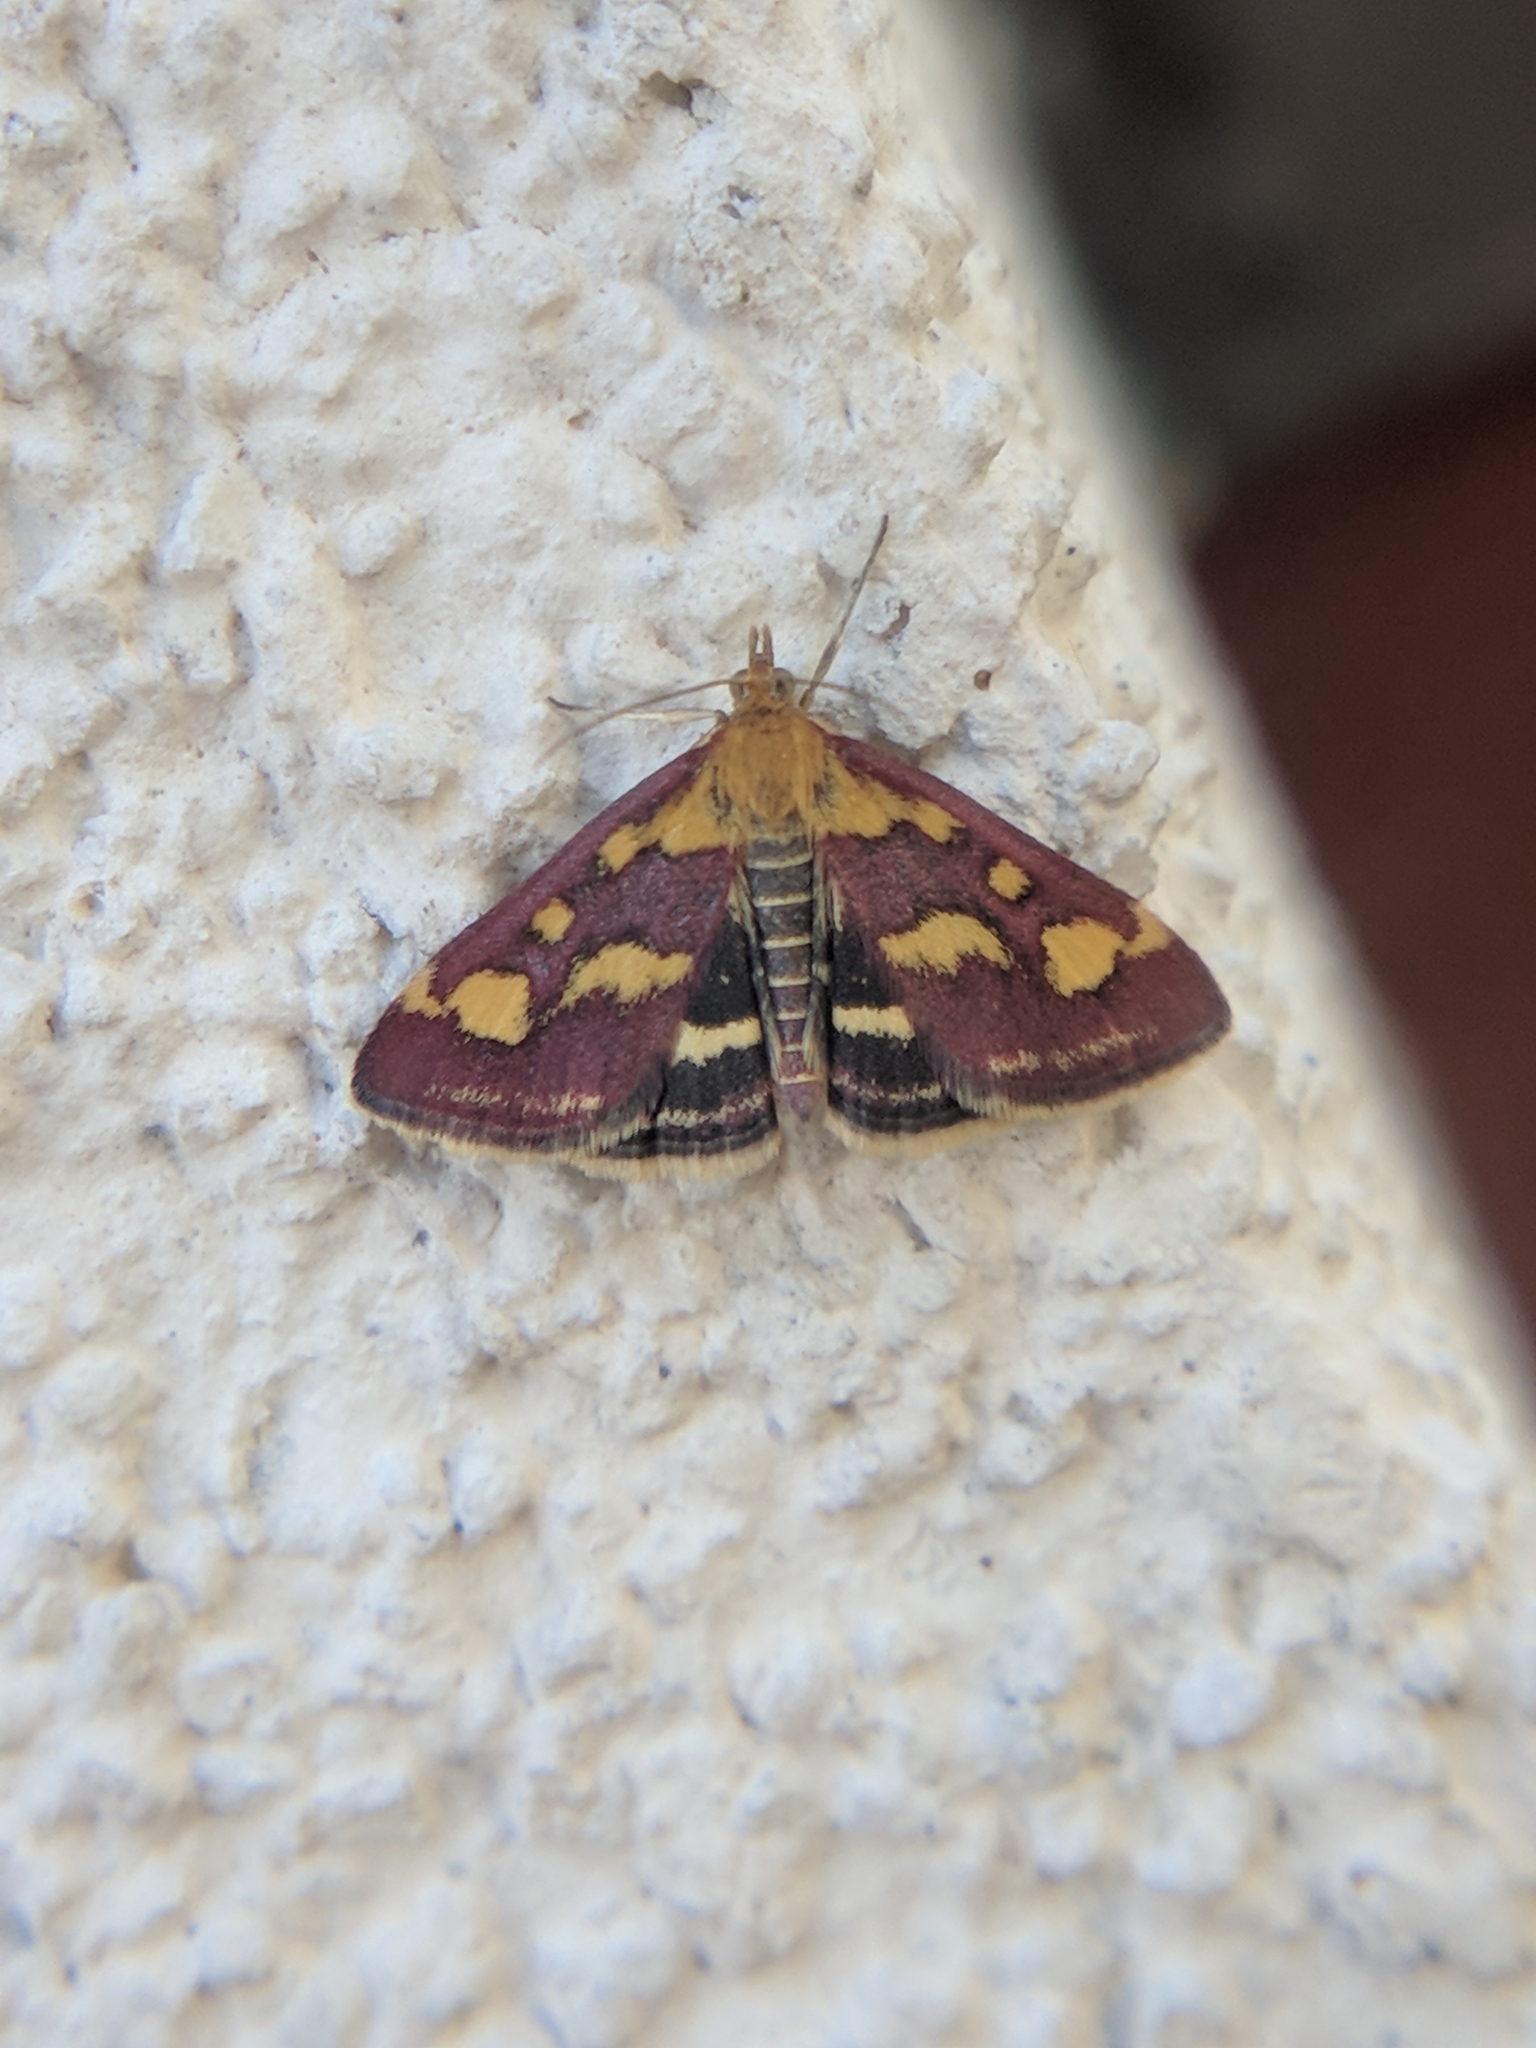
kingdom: Animalia
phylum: Arthropoda
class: Insecta
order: Lepidoptera
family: Crambidae
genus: Pyrausta
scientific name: Pyrausta purpuralis
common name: Common purple & gold
